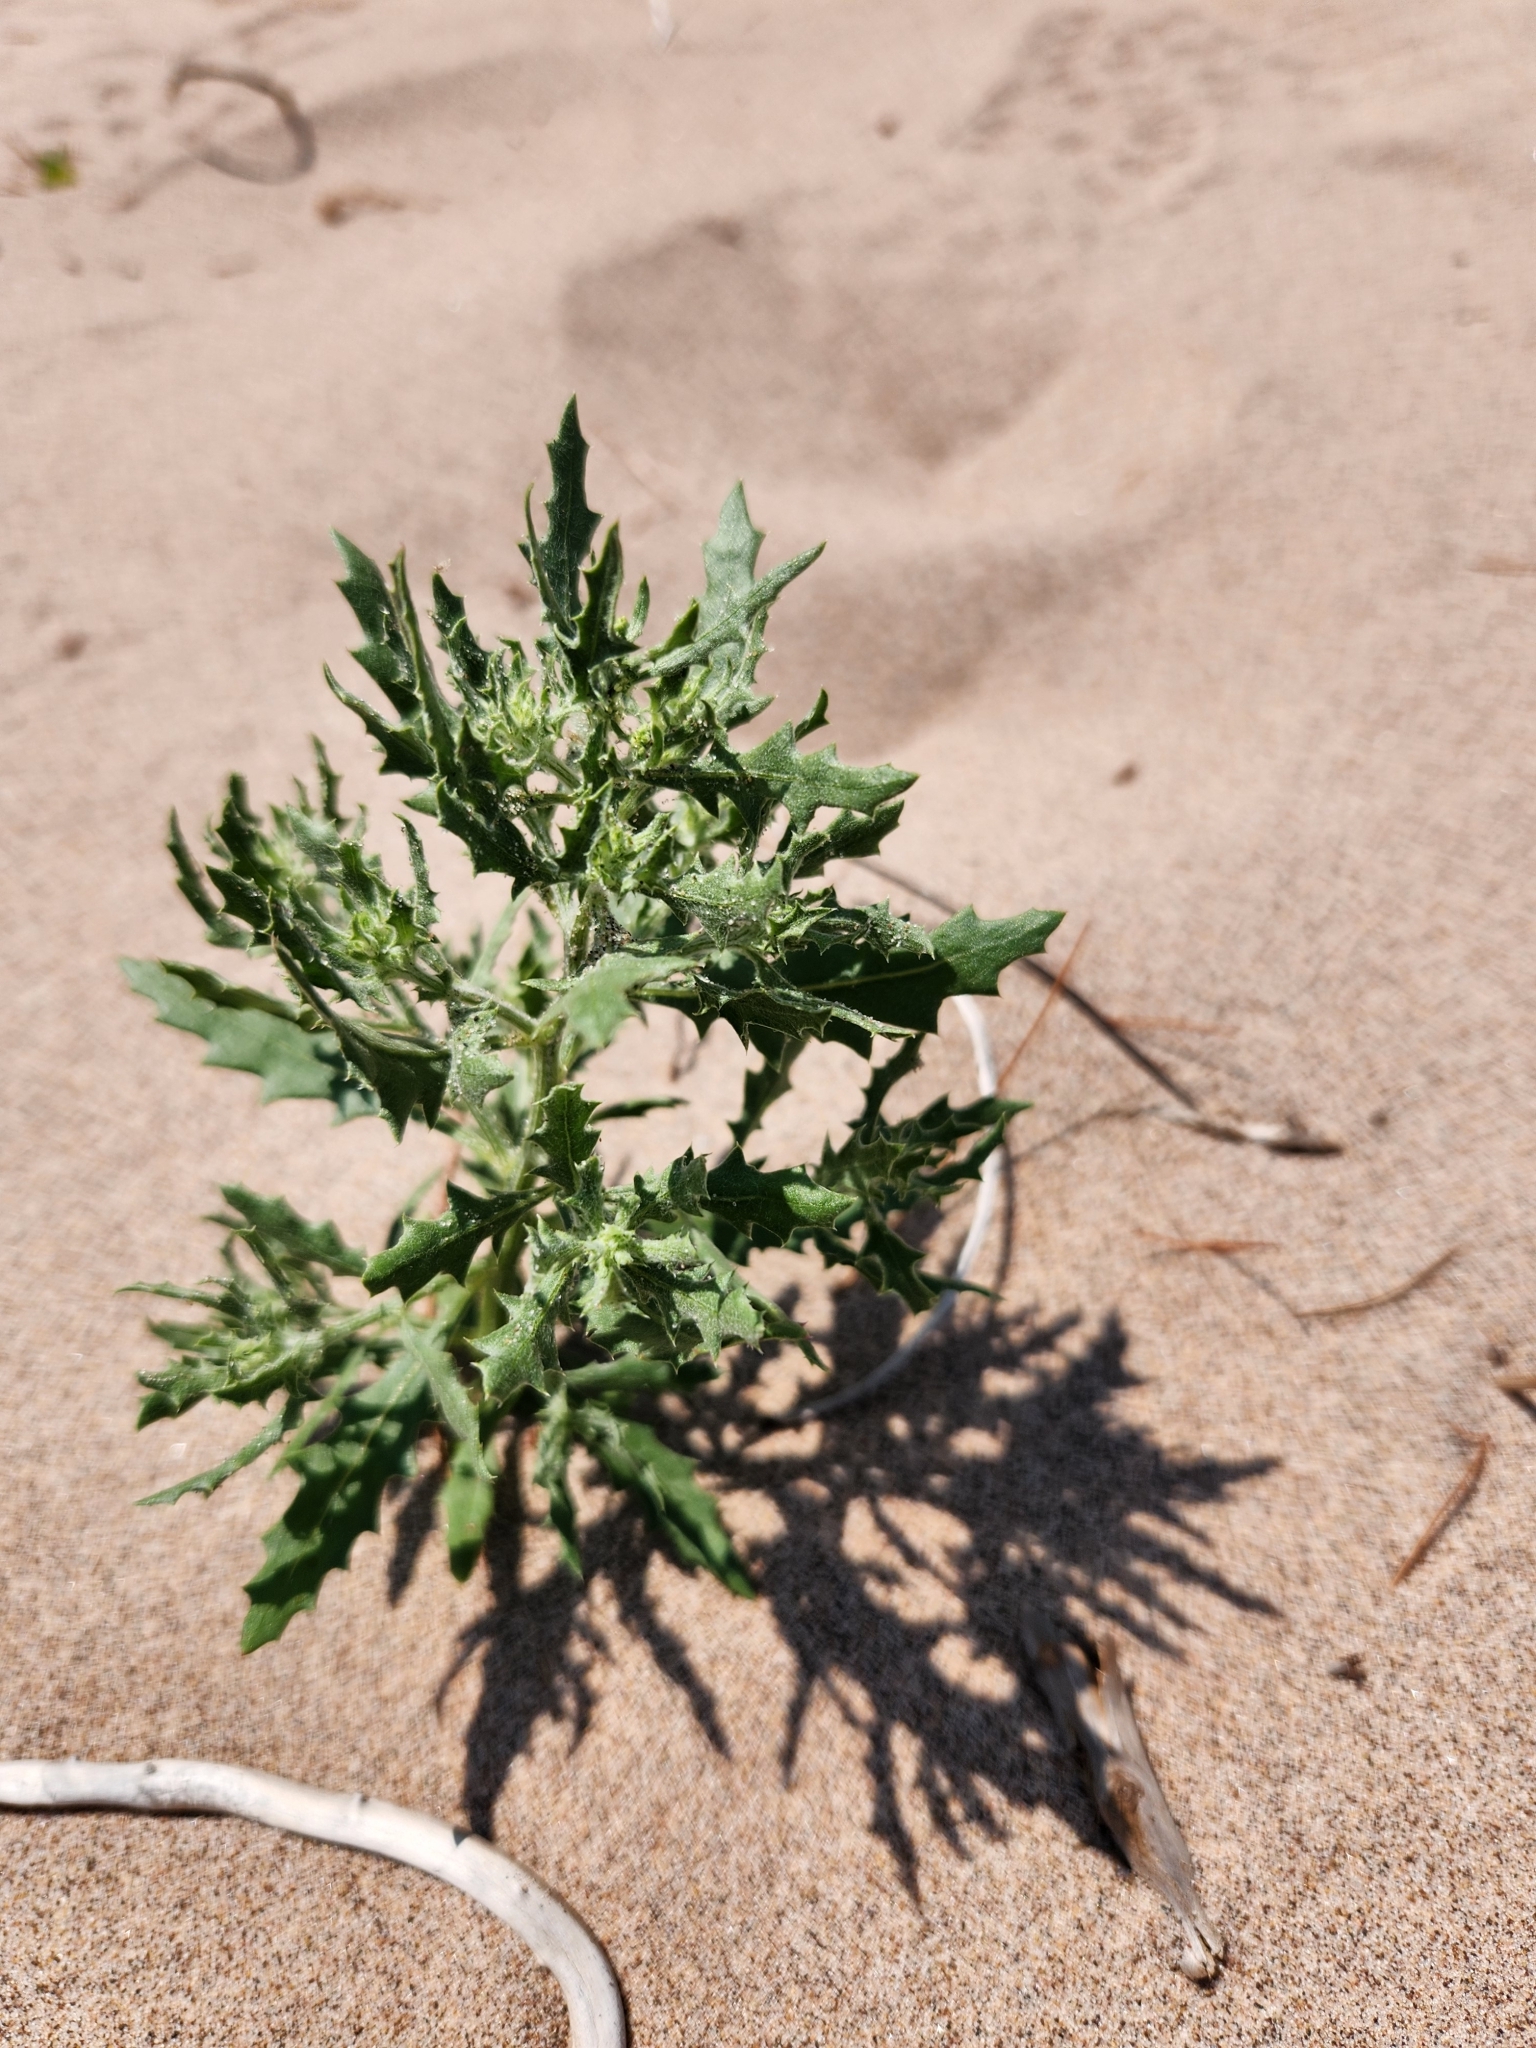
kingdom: Plantae
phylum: Tracheophyta
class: Magnoliopsida
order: Caryophyllales
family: Amaranthaceae
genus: Dysphania
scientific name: Dysphania atriplicifolia
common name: Plains tumbleweed
